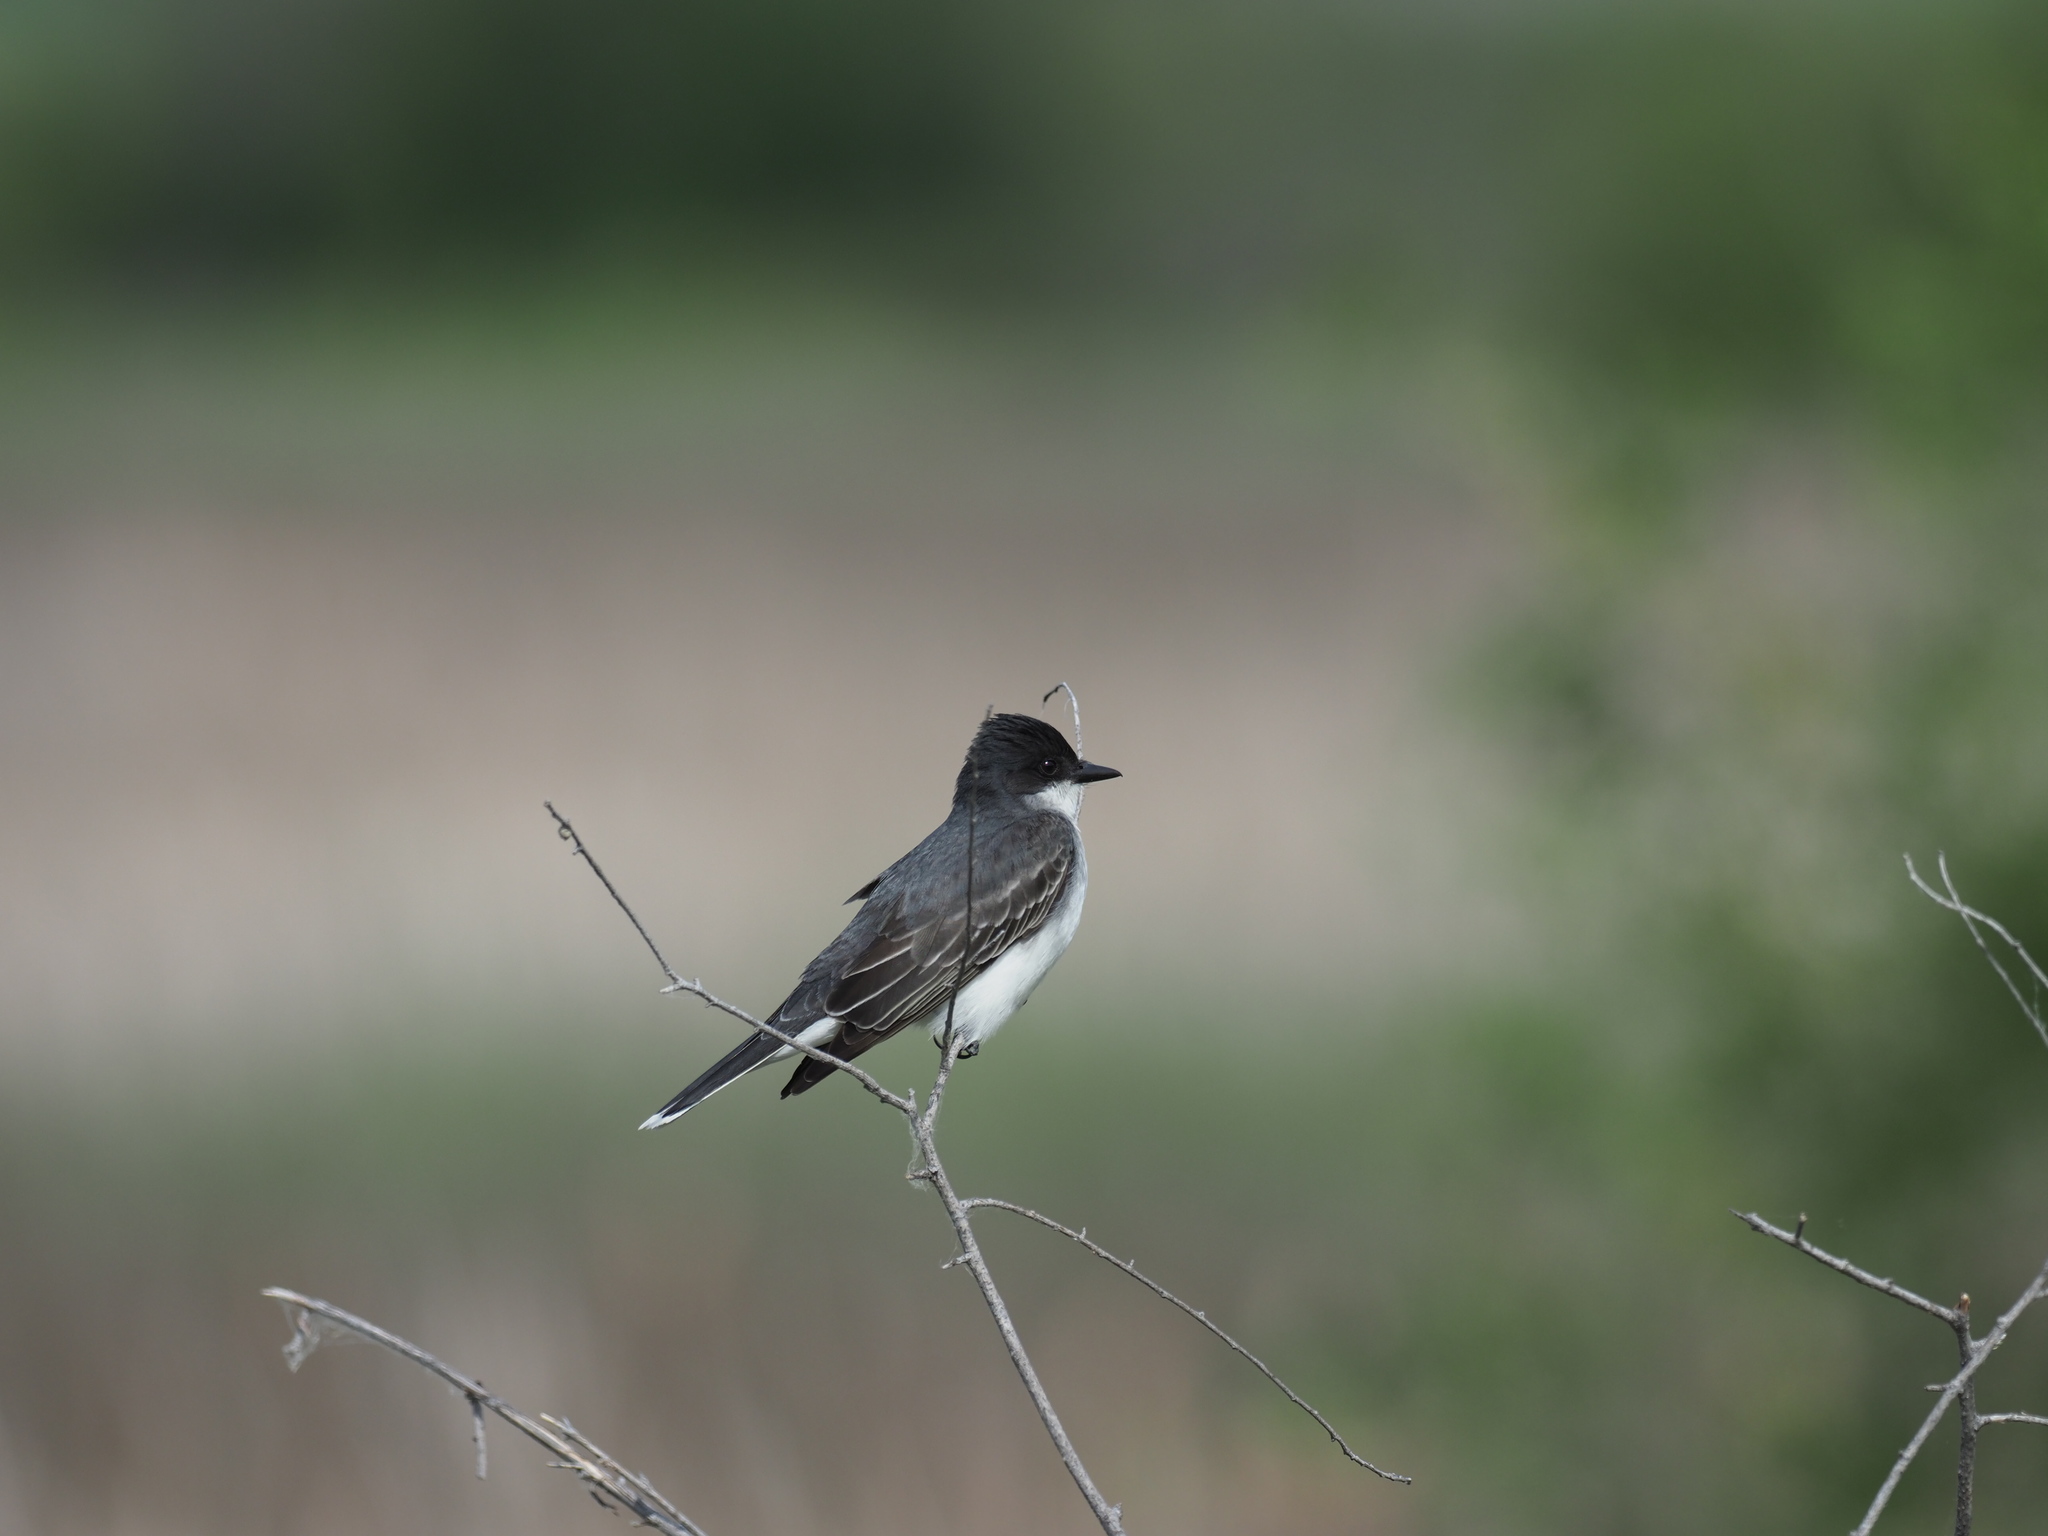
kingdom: Animalia
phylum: Chordata
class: Aves
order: Passeriformes
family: Tyrannidae
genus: Tyrannus
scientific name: Tyrannus tyrannus
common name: Eastern kingbird
